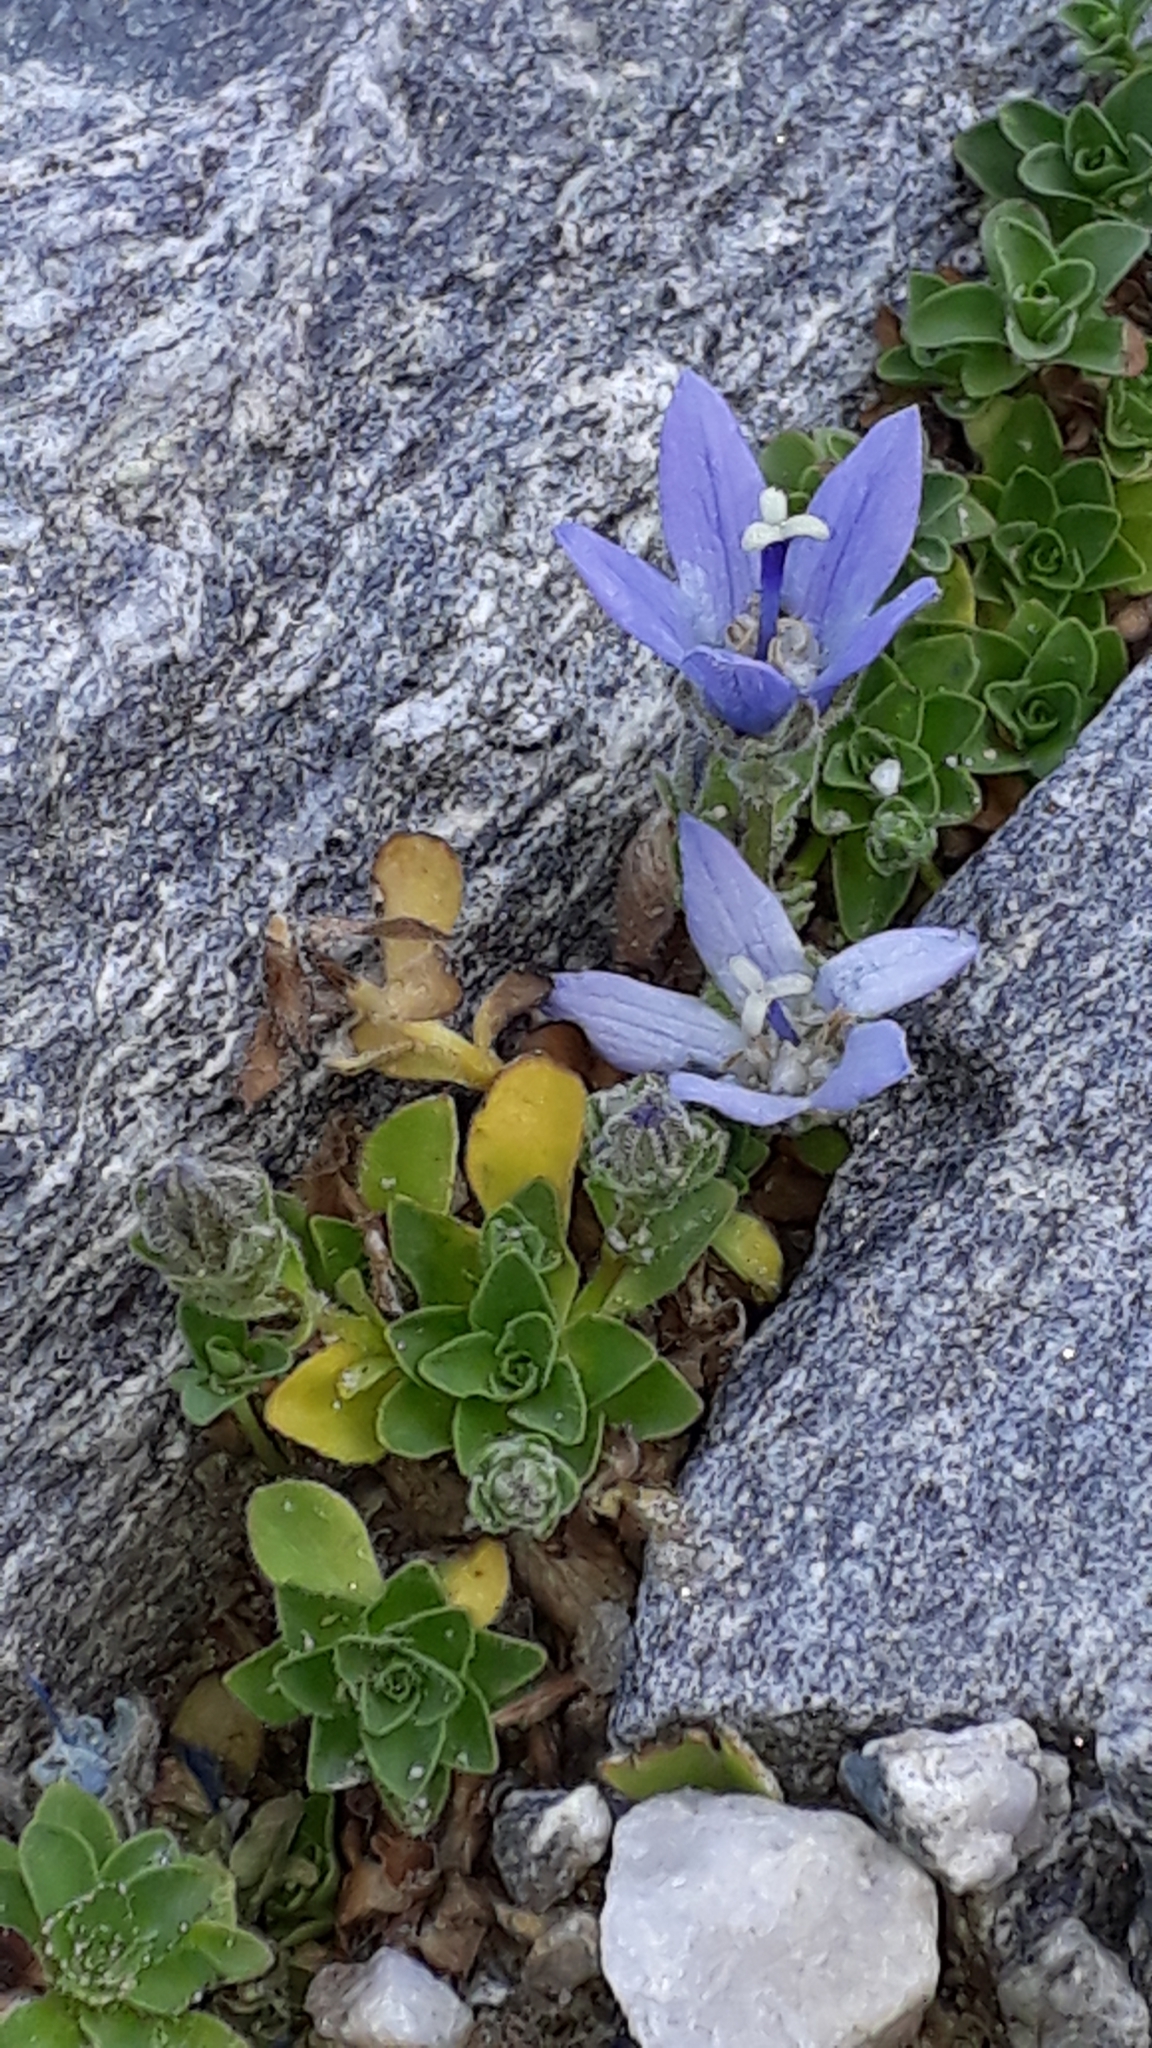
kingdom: Plantae
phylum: Tracheophyta
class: Magnoliopsida
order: Asterales
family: Campanulaceae
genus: Campanula
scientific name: Campanula cenisia
